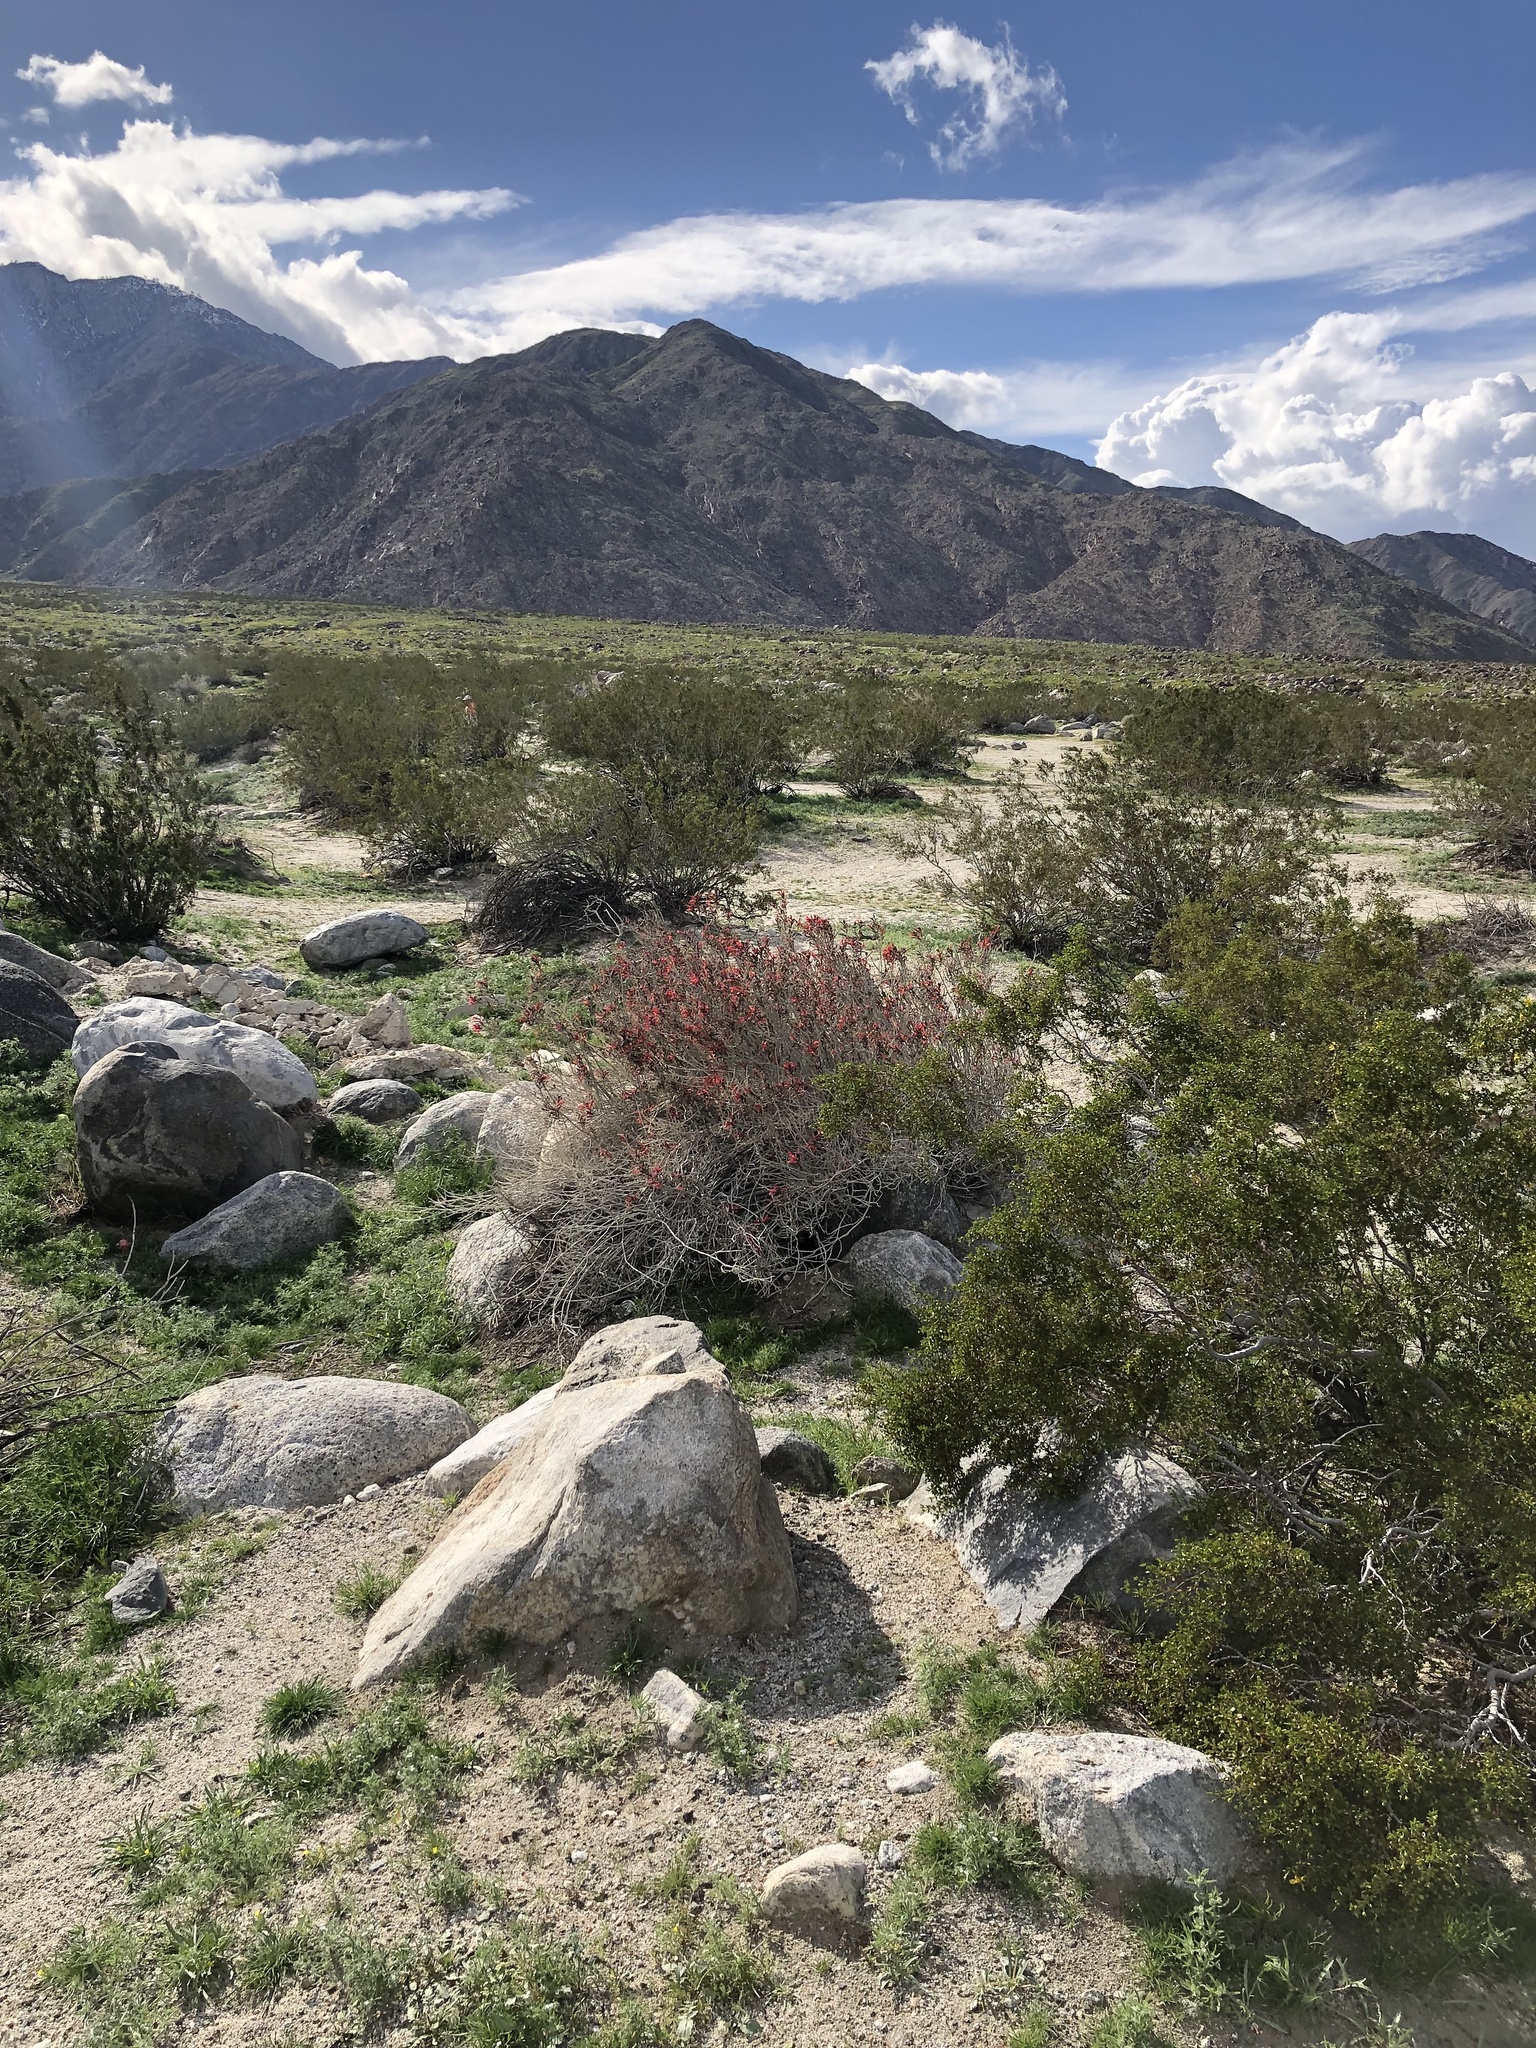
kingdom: Plantae
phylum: Tracheophyta
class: Magnoliopsida
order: Lamiales
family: Acanthaceae
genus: Justicia
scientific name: Justicia californica
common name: Chuparosa-honeysuckle
